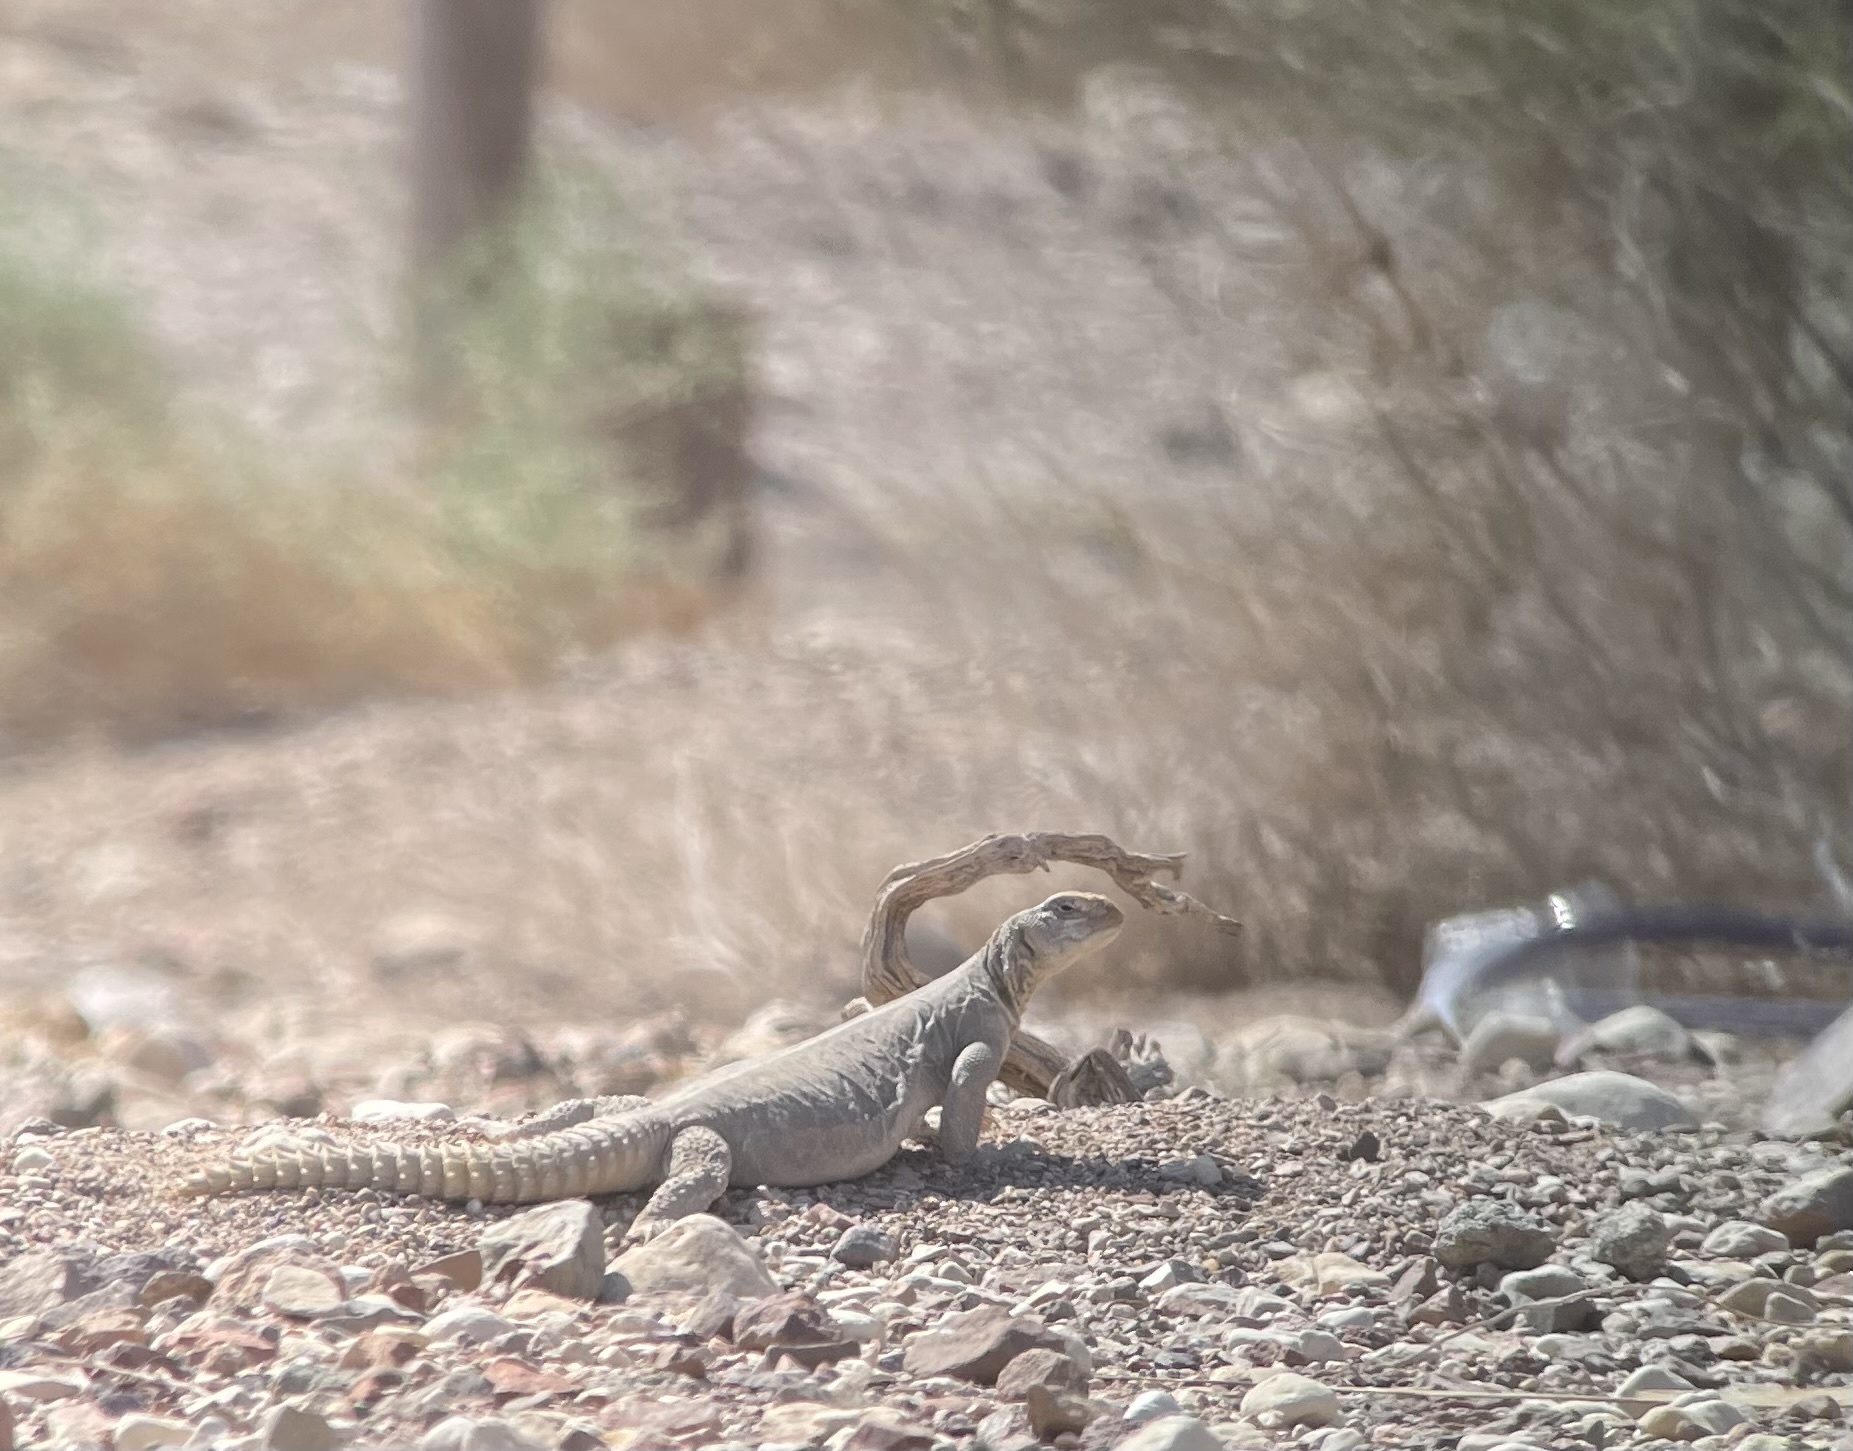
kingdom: Animalia
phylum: Chordata
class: Squamata
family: Agamidae
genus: Uromastyx
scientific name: Uromastyx aegyptia
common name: Egyptian mastigure
